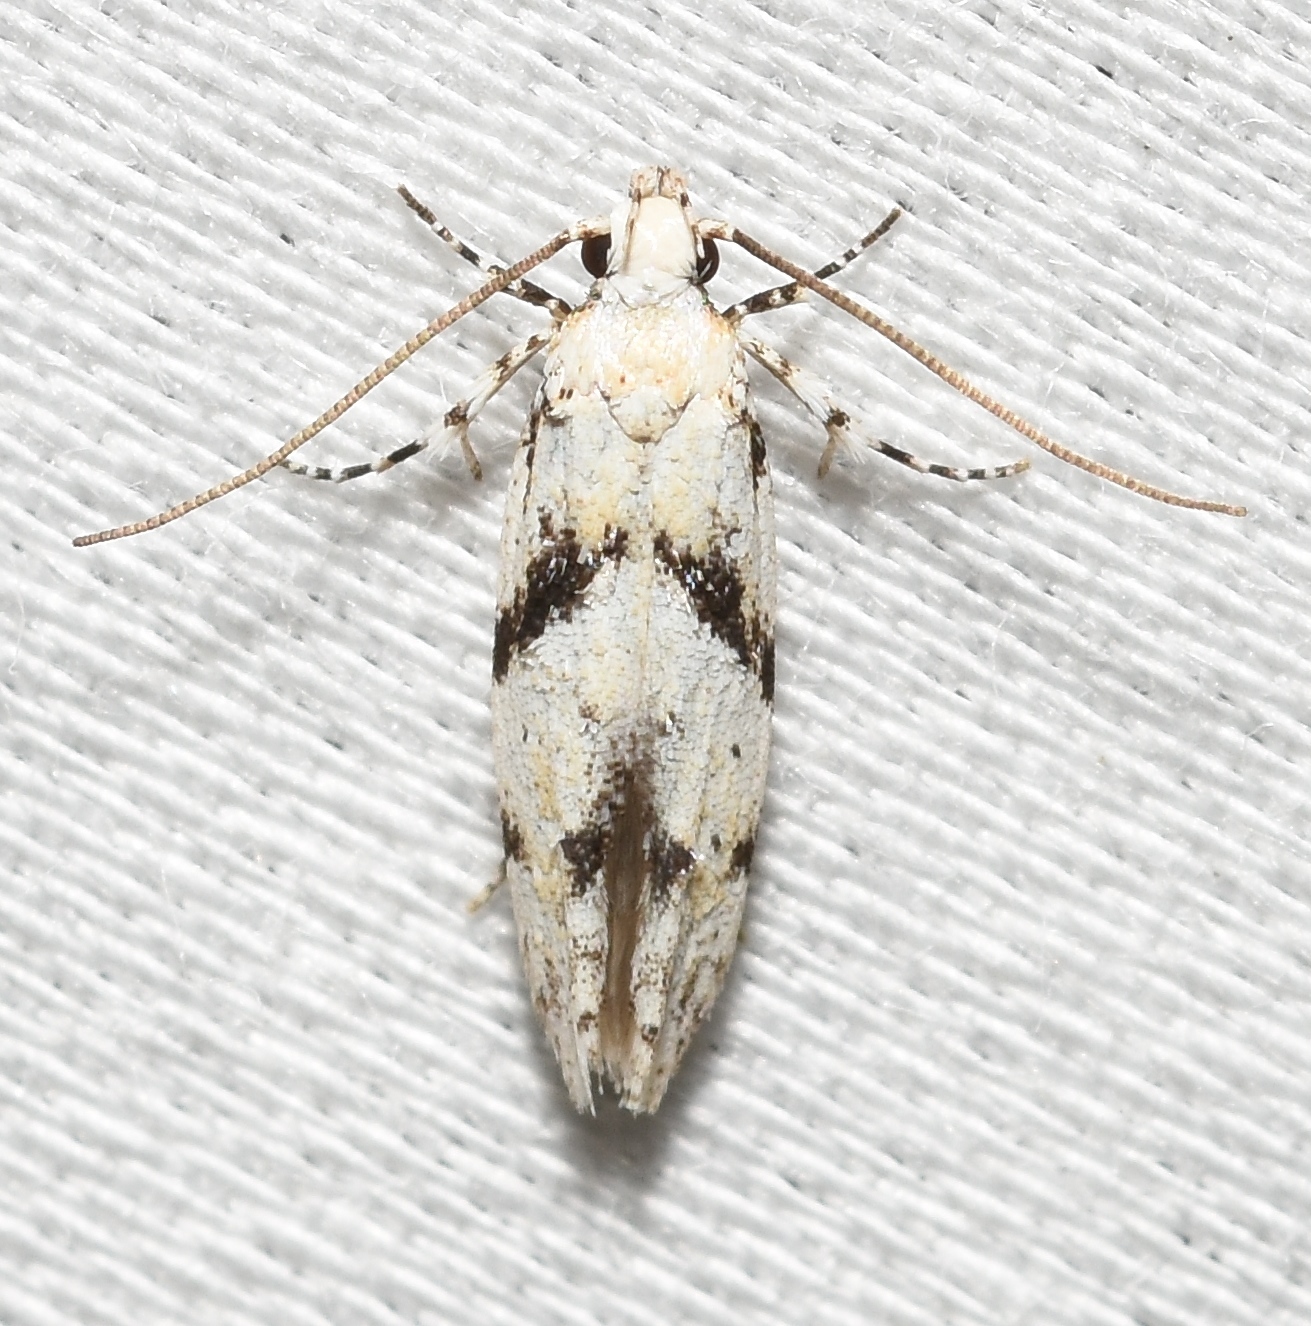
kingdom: Animalia
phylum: Arthropoda
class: Insecta
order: Lepidoptera
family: Gelechiidae
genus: Arogalea
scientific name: Arogalea cristifasciella
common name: White stripe-backed moth
